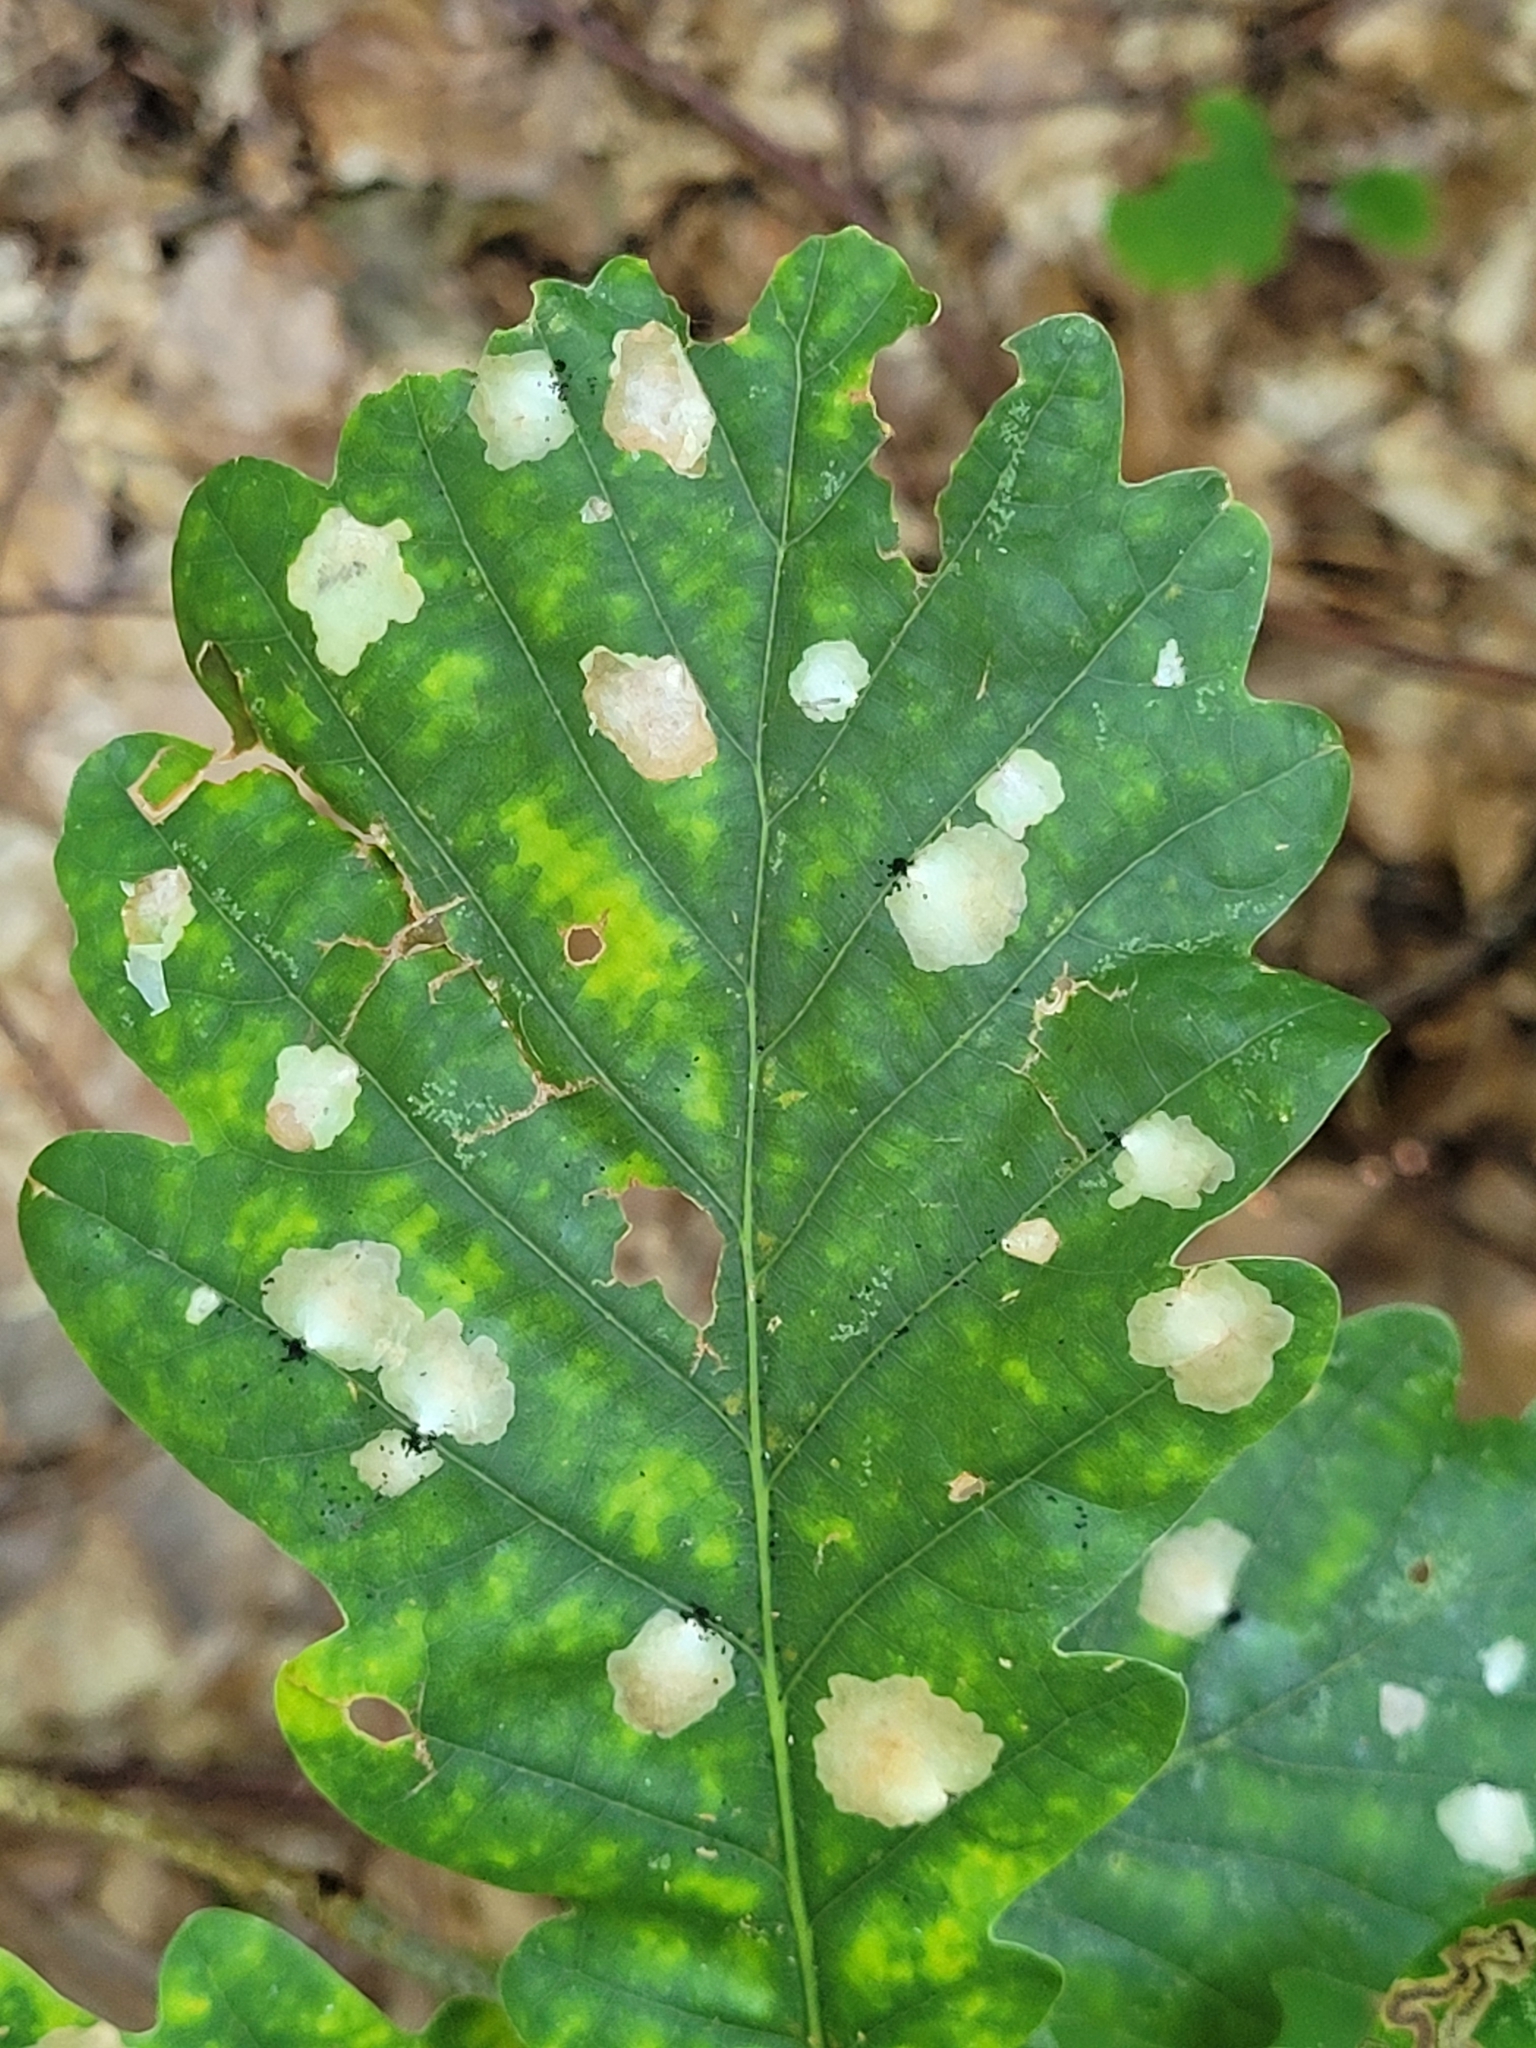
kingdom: Animalia
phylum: Arthropoda
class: Insecta
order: Lepidoptera
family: Tischeriidae
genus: Tischeria
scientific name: Tischeria ekebladella
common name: Oak carl
